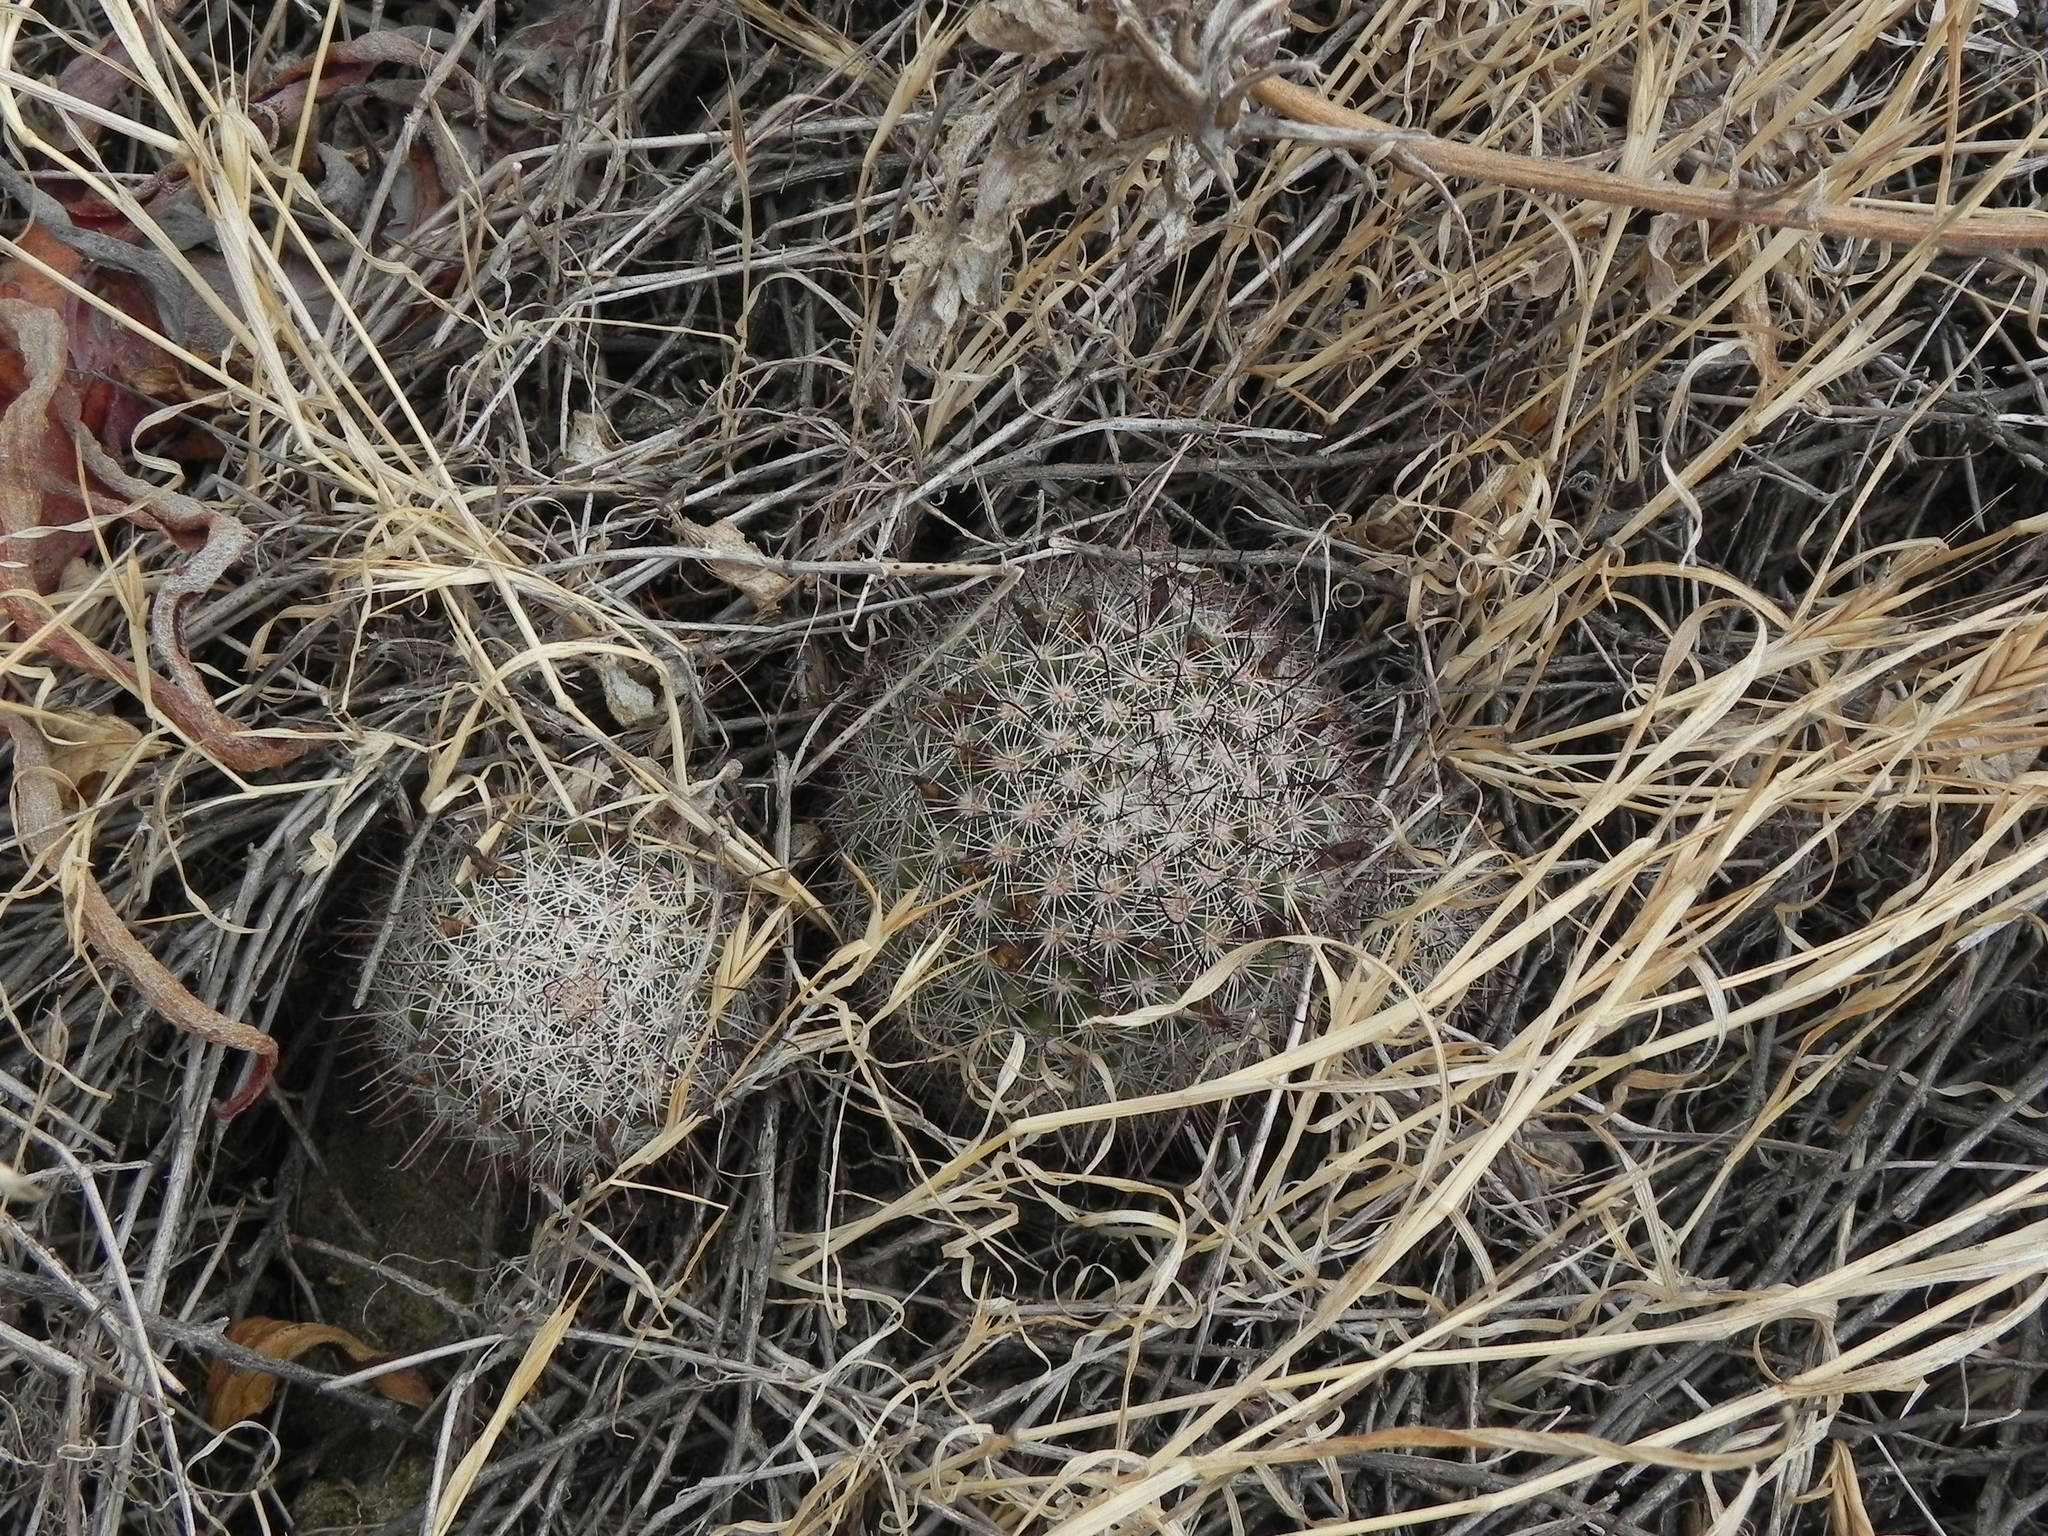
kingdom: Plantae
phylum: Tracheophyta
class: Magnoliopsida
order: Caryophyllales
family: Cactaceae
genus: Cochemiea
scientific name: Cochemiea dioica
